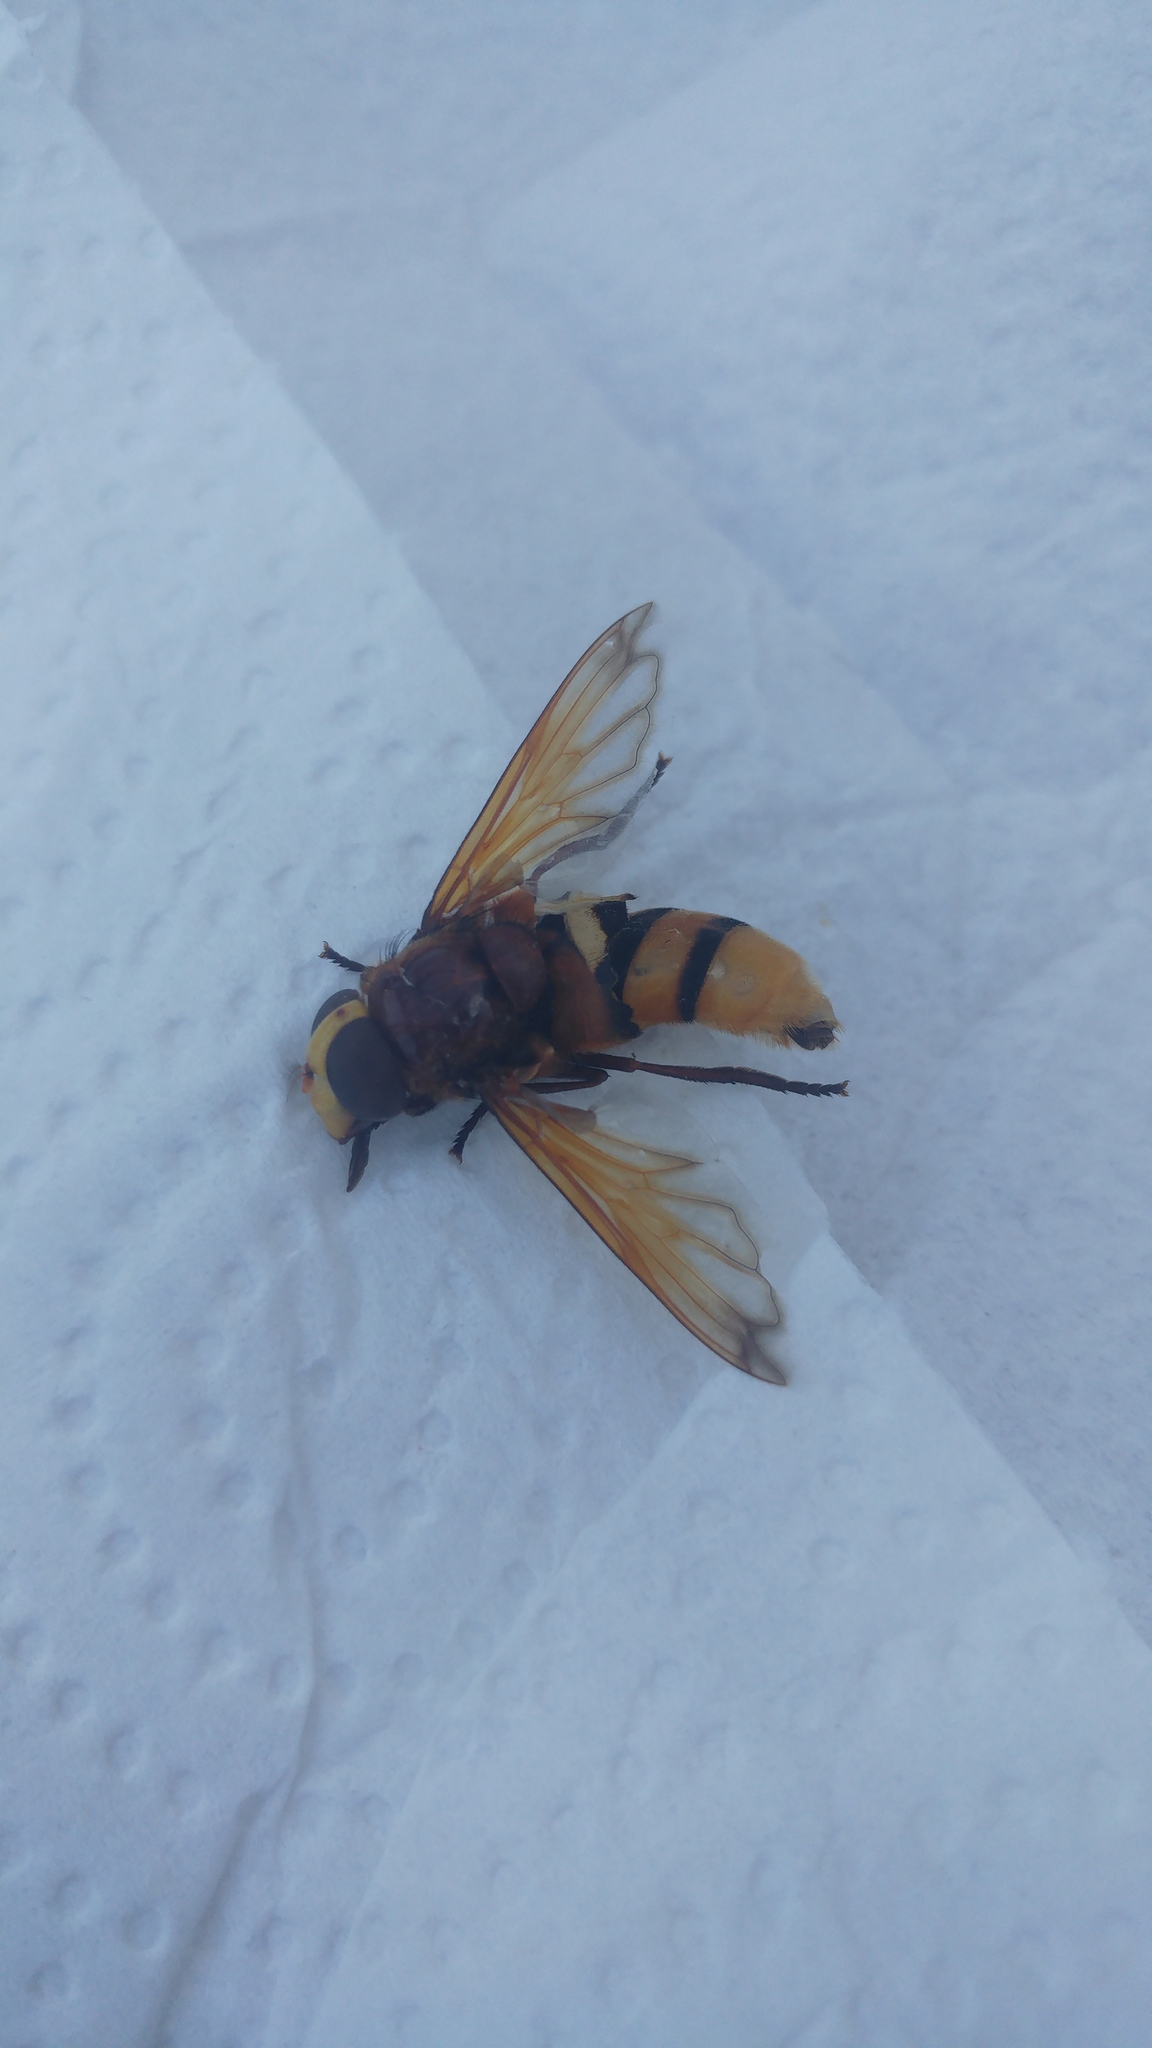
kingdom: Animalia
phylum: Arthropoda
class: Insecta
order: Diptera
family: Syrphidae
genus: Volucella
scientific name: Volucella zonaria
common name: Hornet hoverfly
